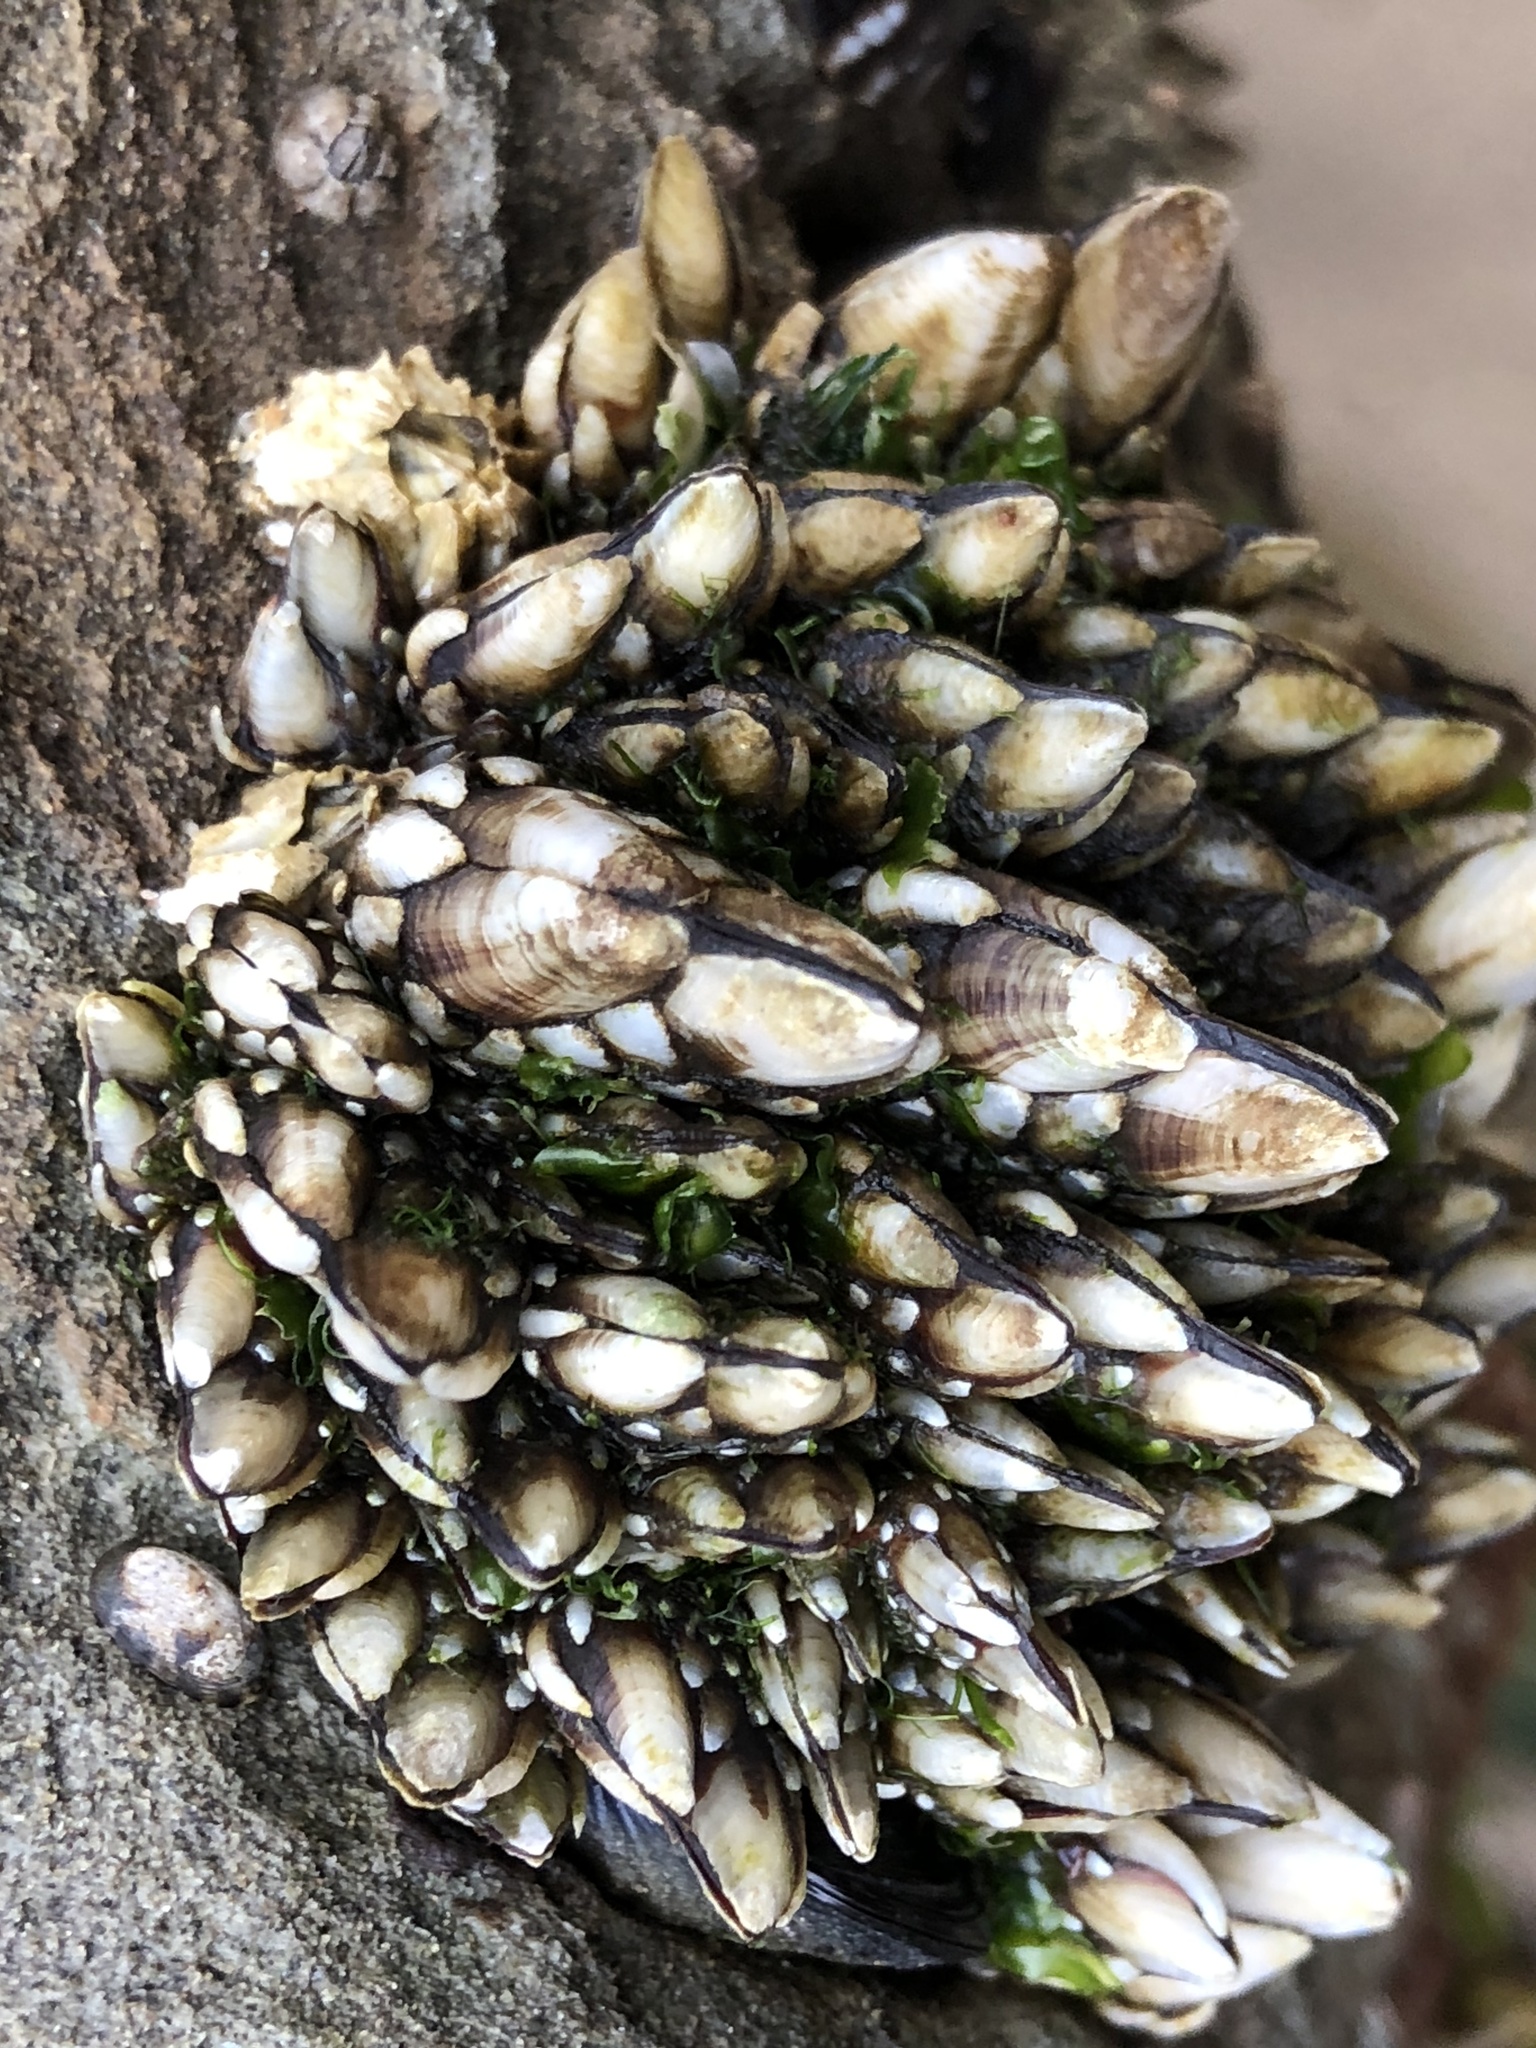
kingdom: Animalia
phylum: Arthropoda
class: Maxillopoda
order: Pedunculata
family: Pollicipedidae
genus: Pollicipes
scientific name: Pollicipes polymerus
